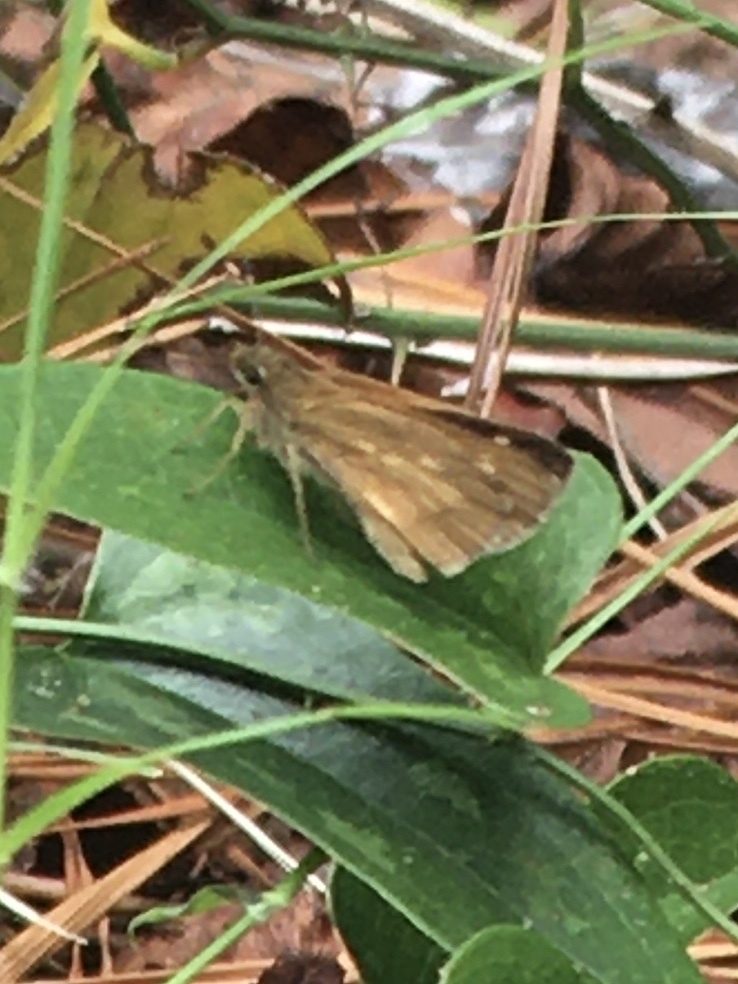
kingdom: Animalia
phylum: Arthropoda
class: Insecta
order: Lepidoptera
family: Hesperiidae
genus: Poanes
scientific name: Poanes viator
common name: Broad-winged skipper
